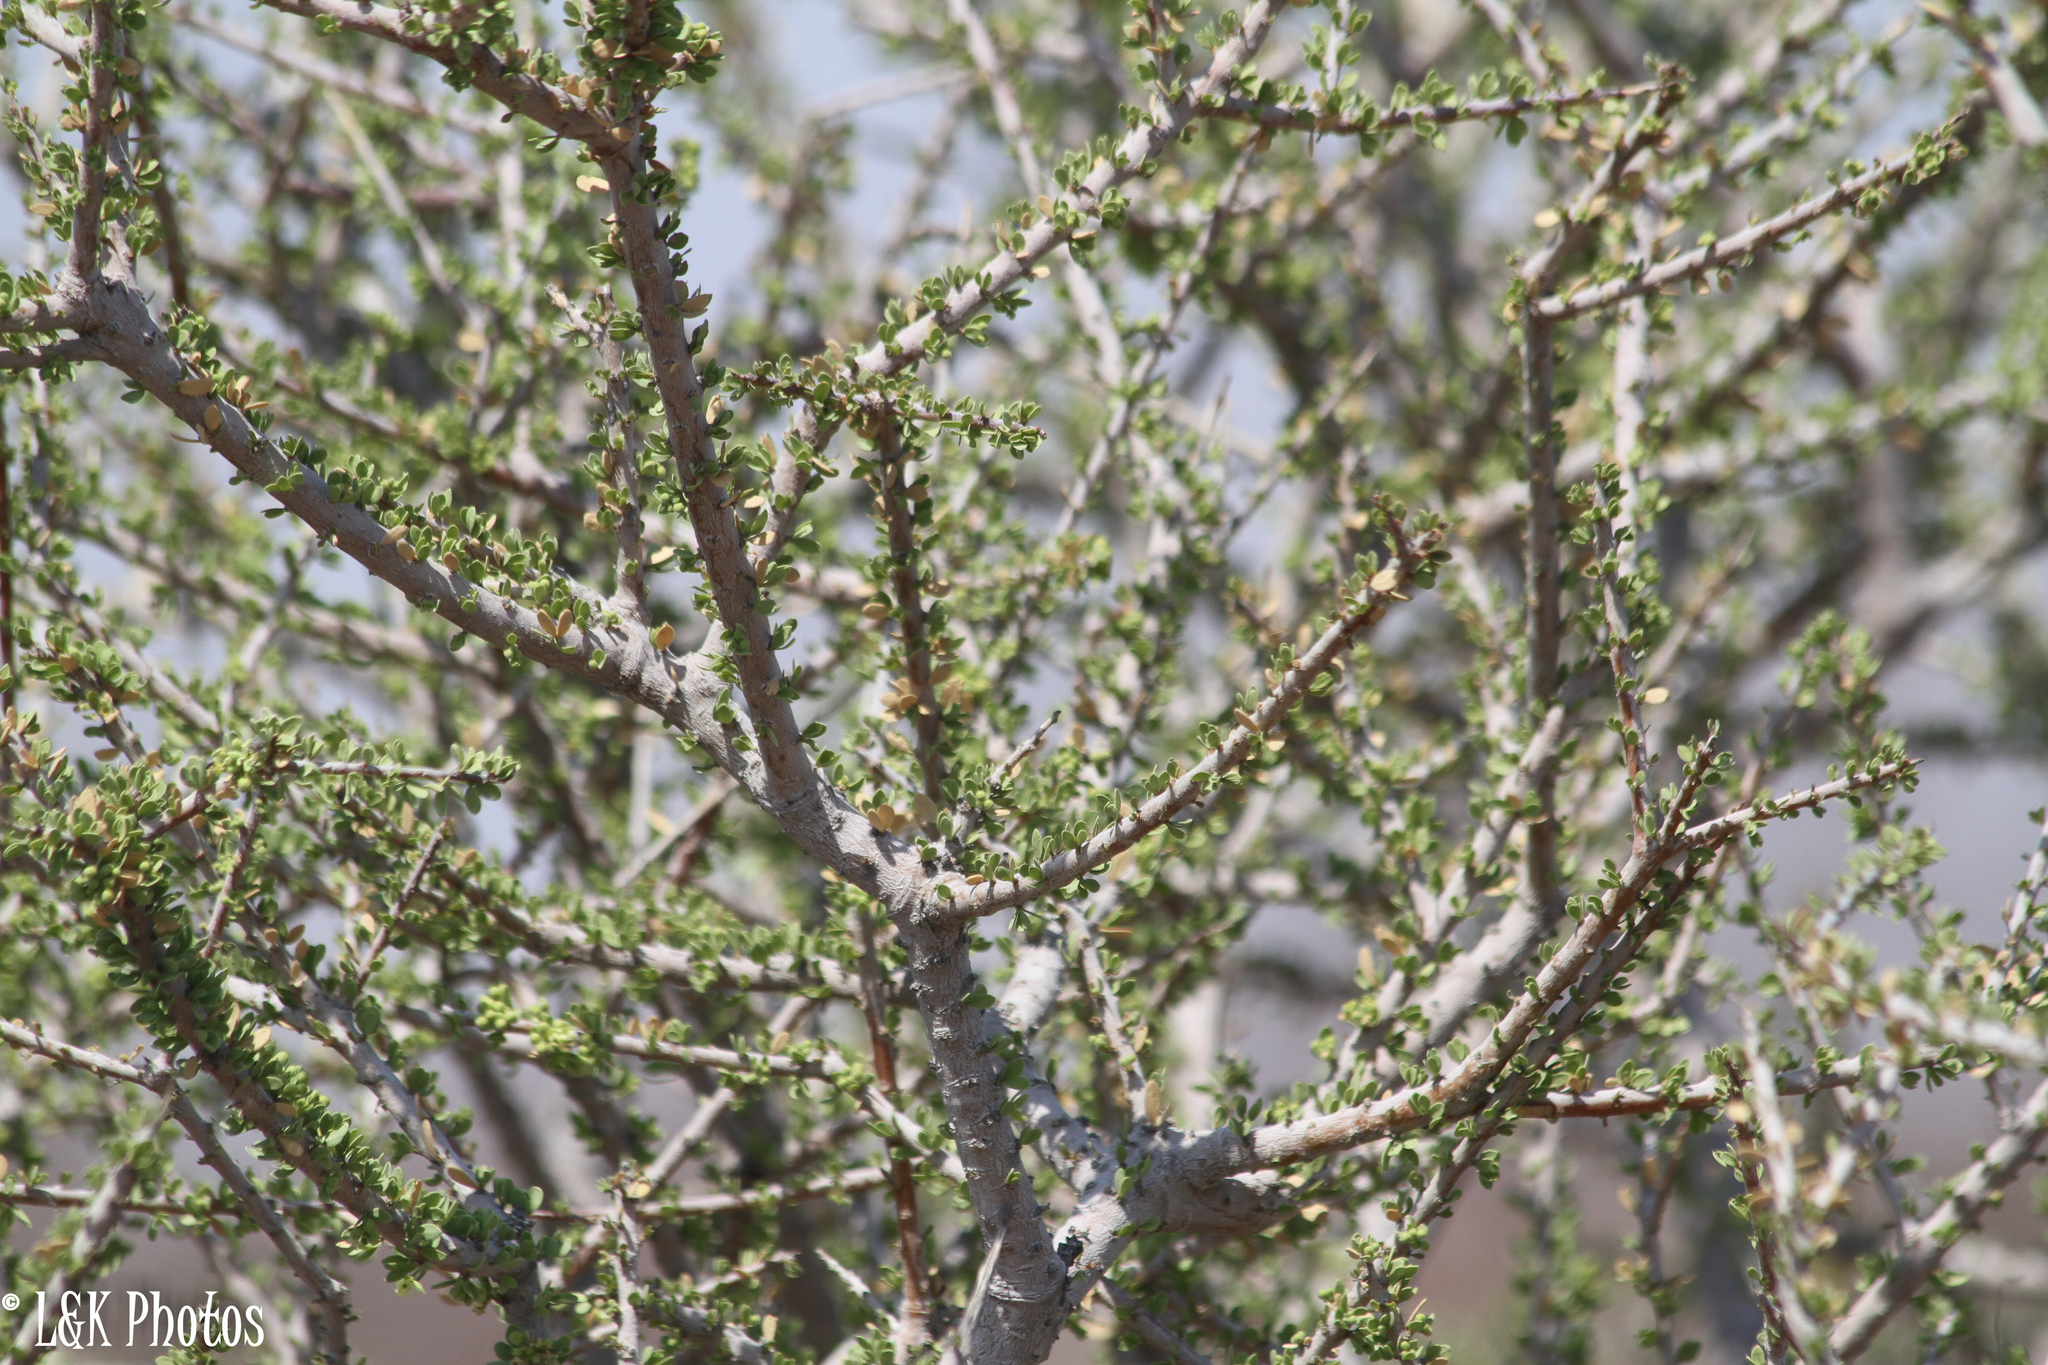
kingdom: Plantae
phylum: Tracheophyta
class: Magnoliopsida
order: Brassicales
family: Capparaceae
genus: Boscia
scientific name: Boscia foetida
